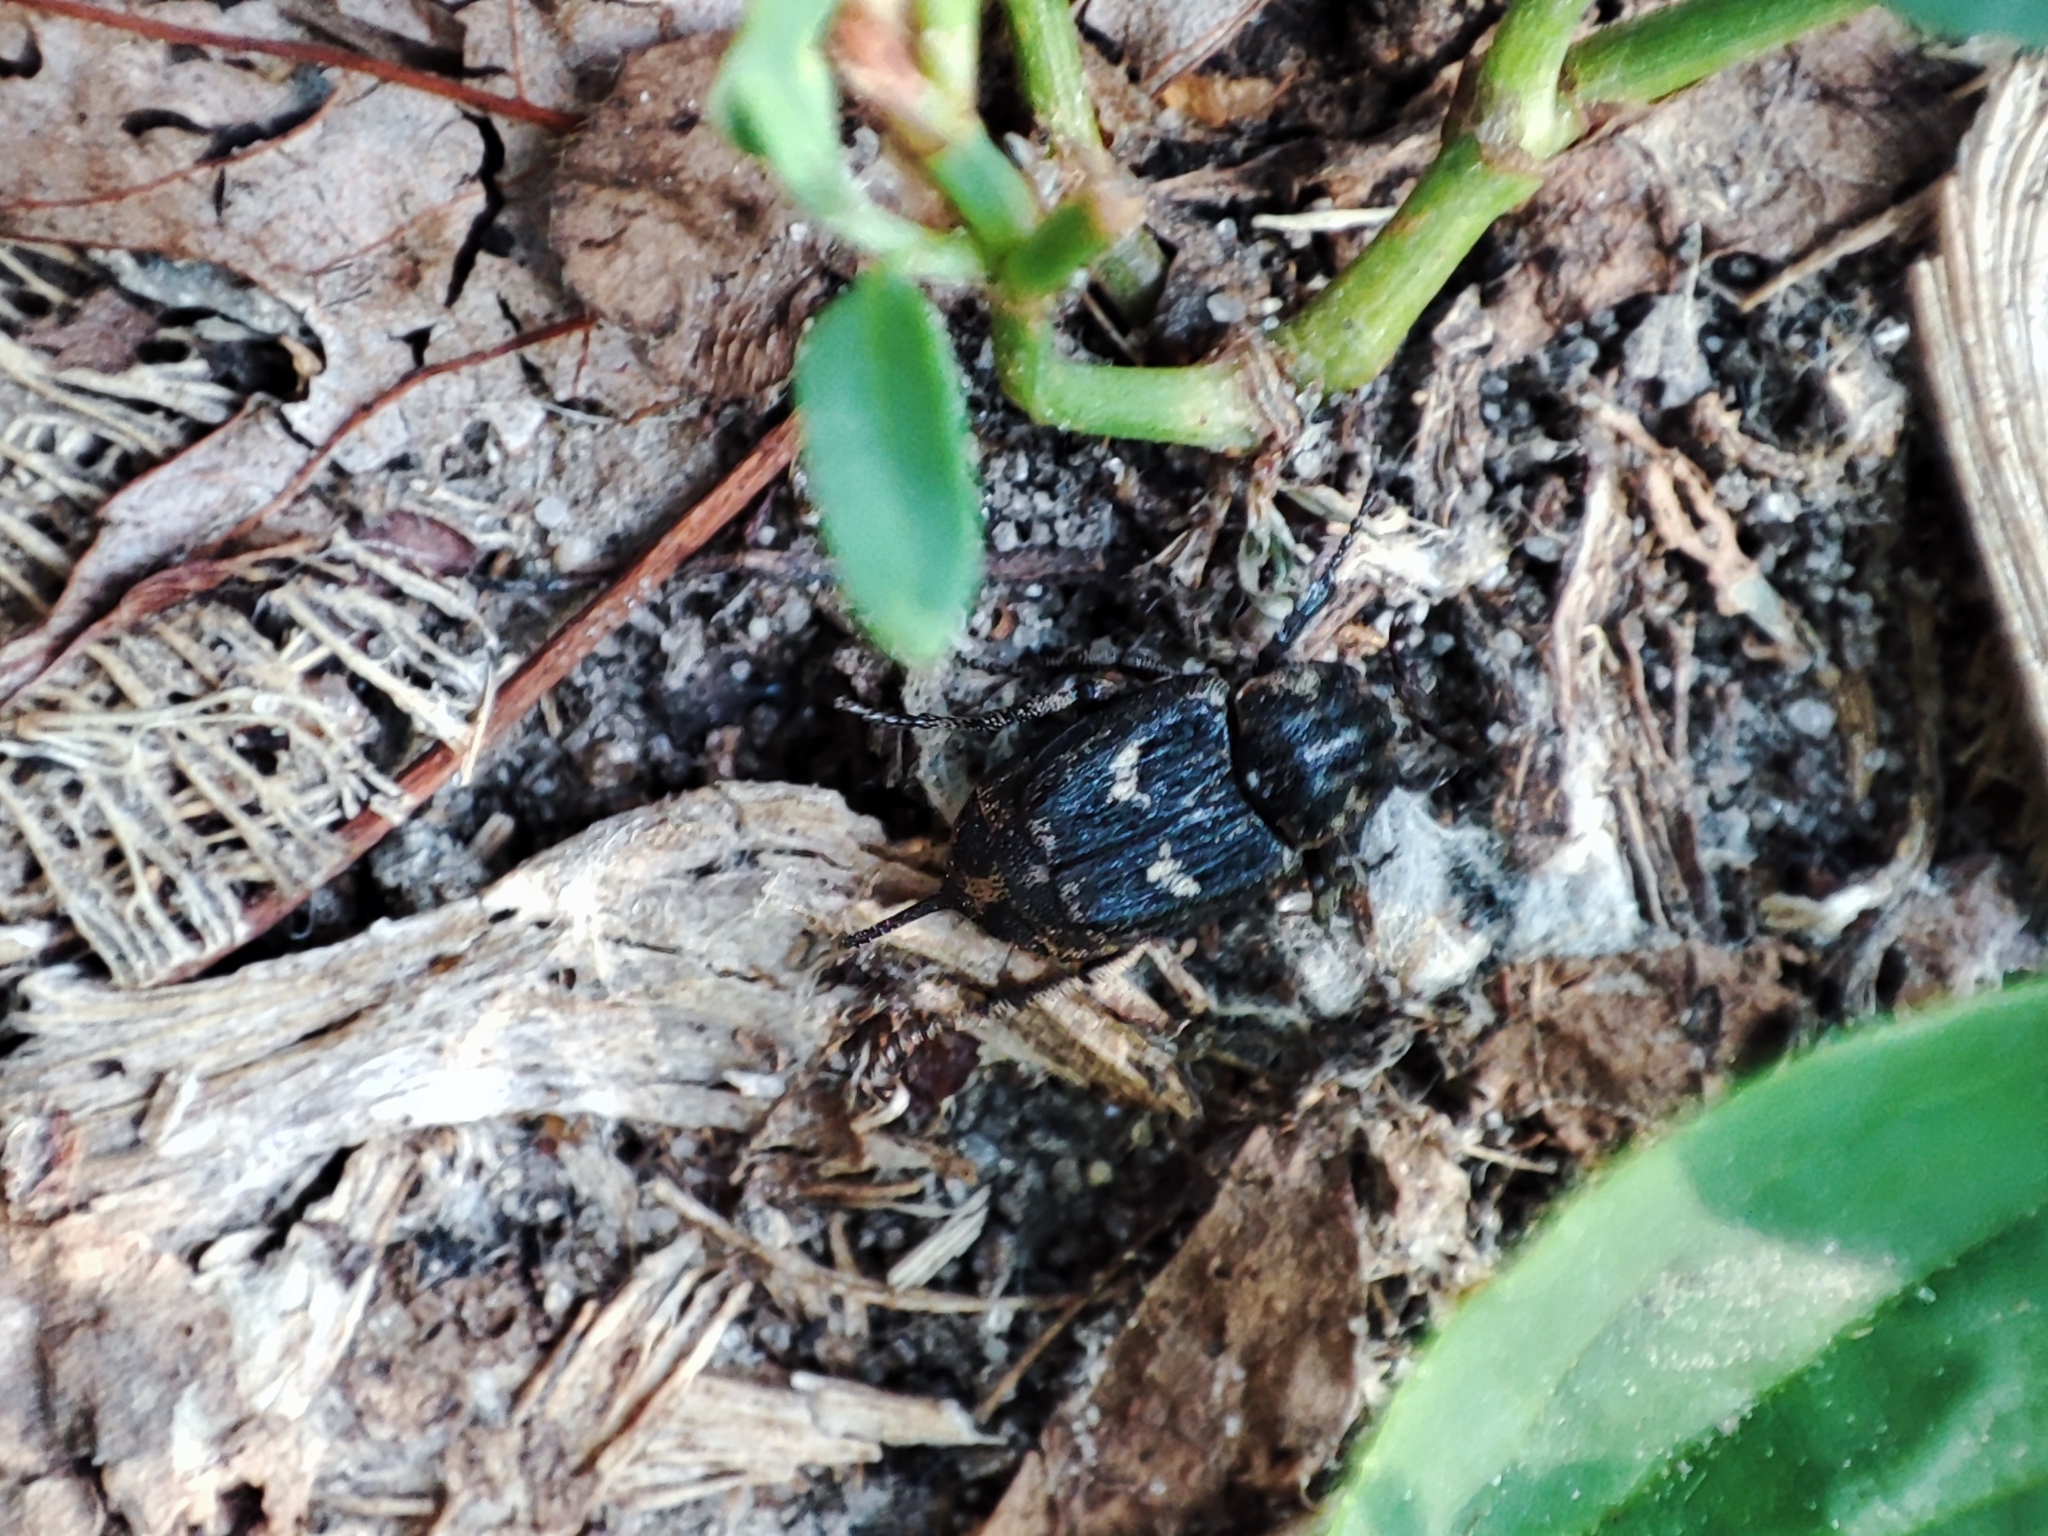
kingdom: Animalia
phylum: Arthropoda
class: Insecta
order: Coleoptera
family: Scarabaeidae
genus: Valgus
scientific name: Valgus hemipterus
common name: Bug flower chafer
